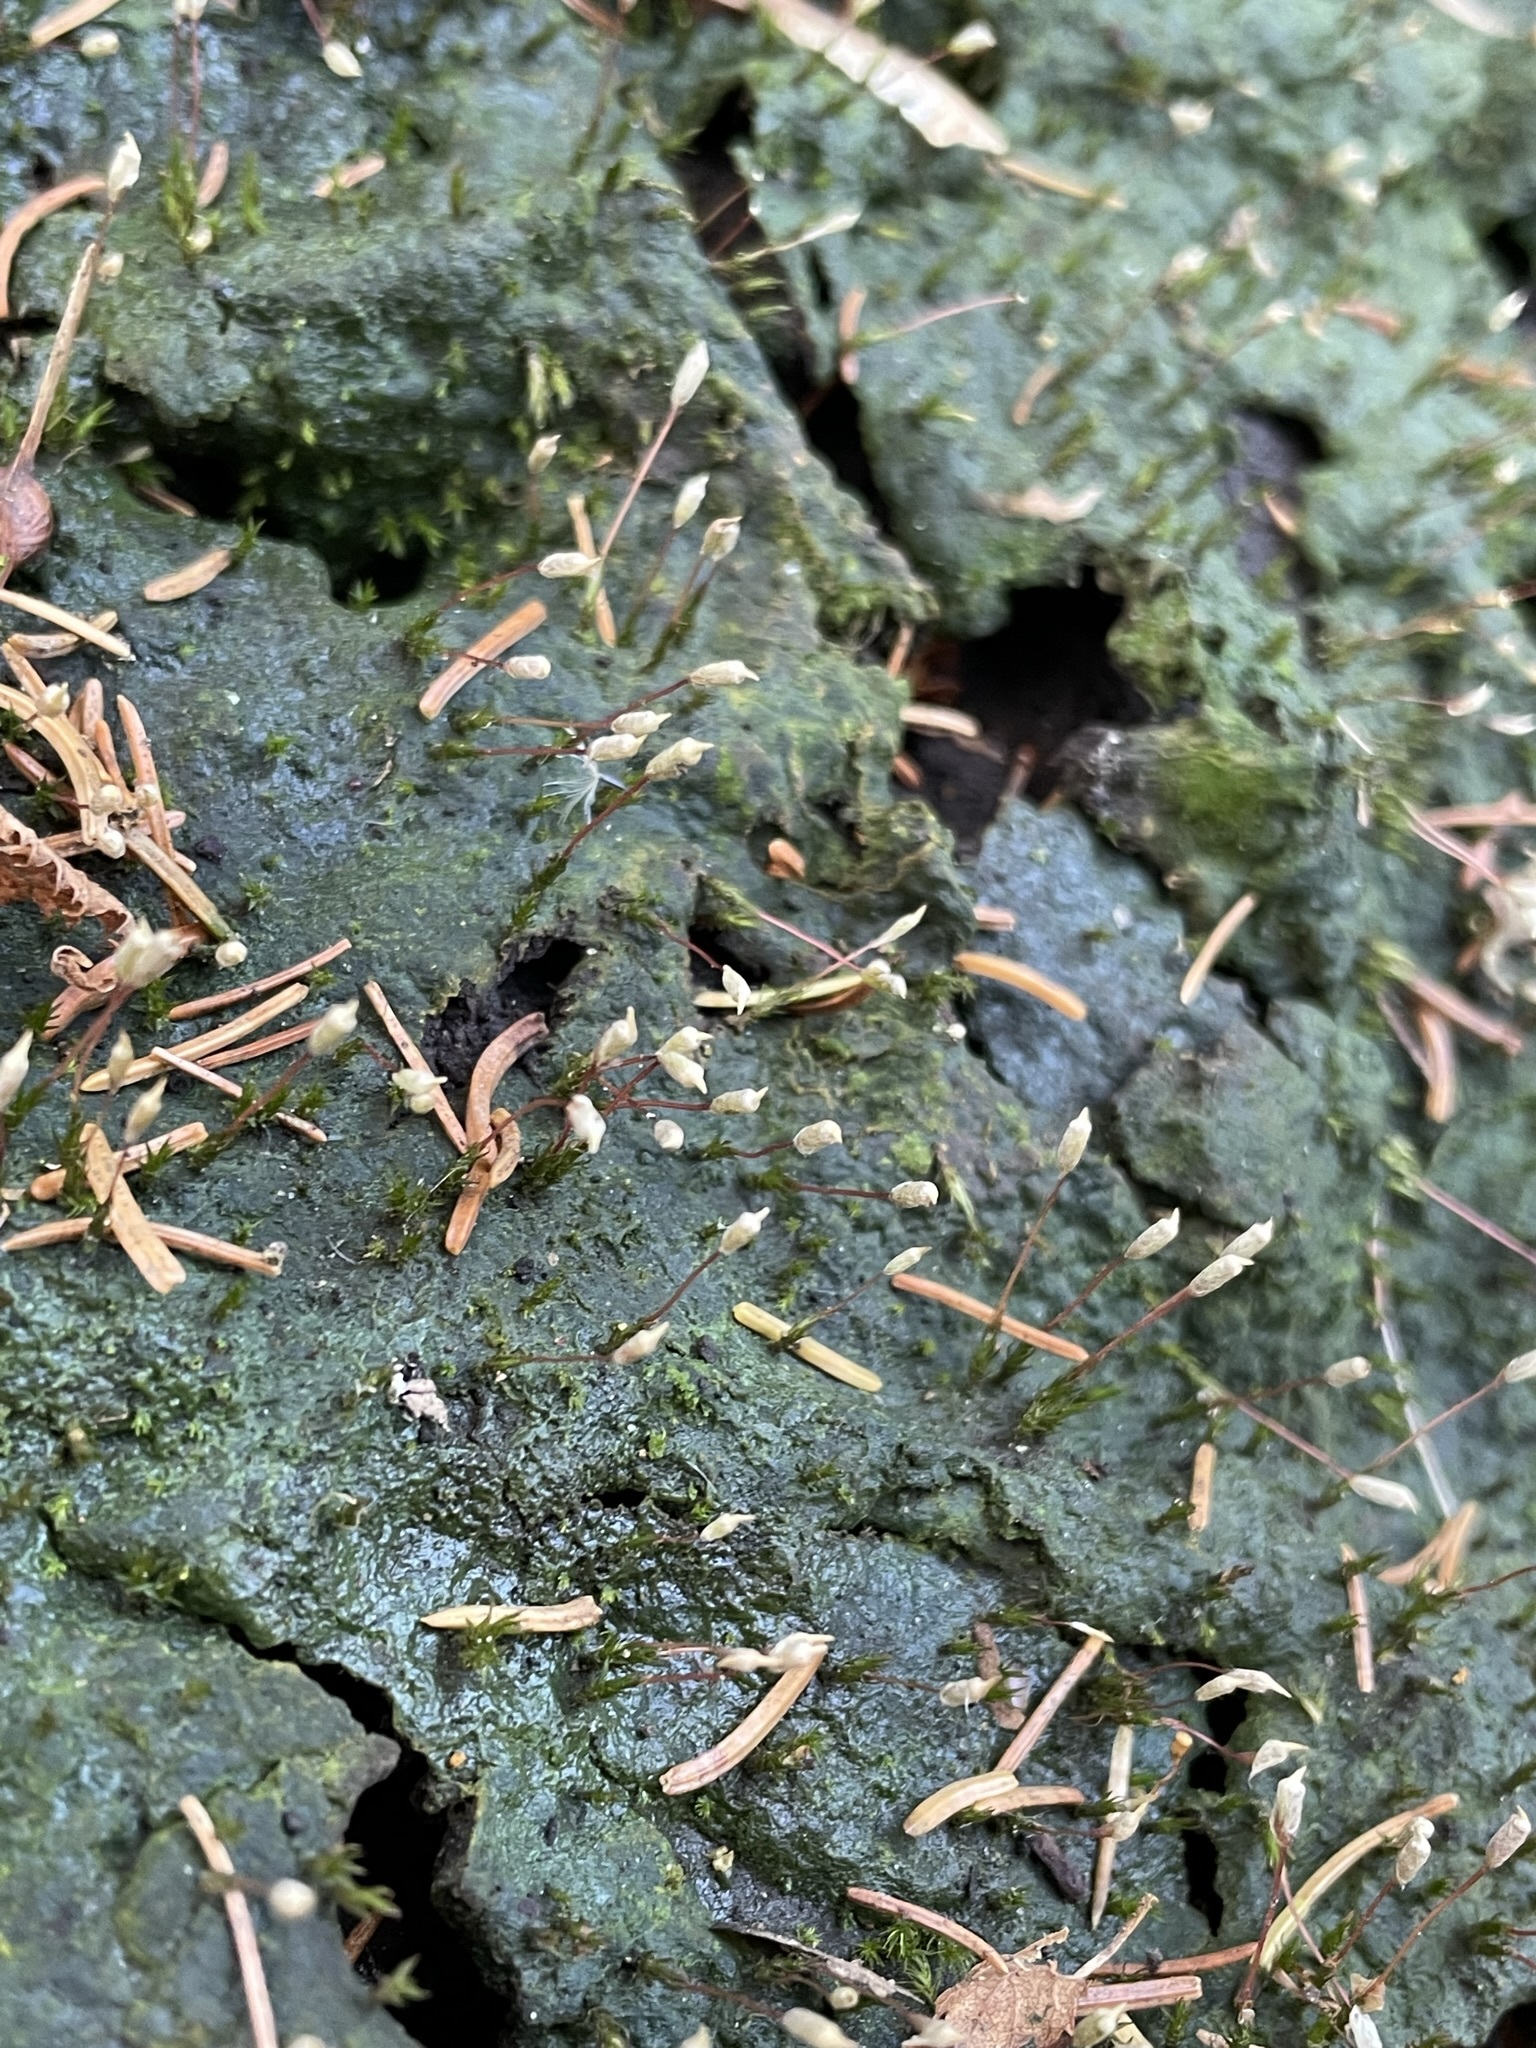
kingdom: Plantae
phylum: Bryophyta
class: Polytrichopsida
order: Polytrichales
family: Polytrichaceae
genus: Pogonatum
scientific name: Pogonatum pensilvanicum
